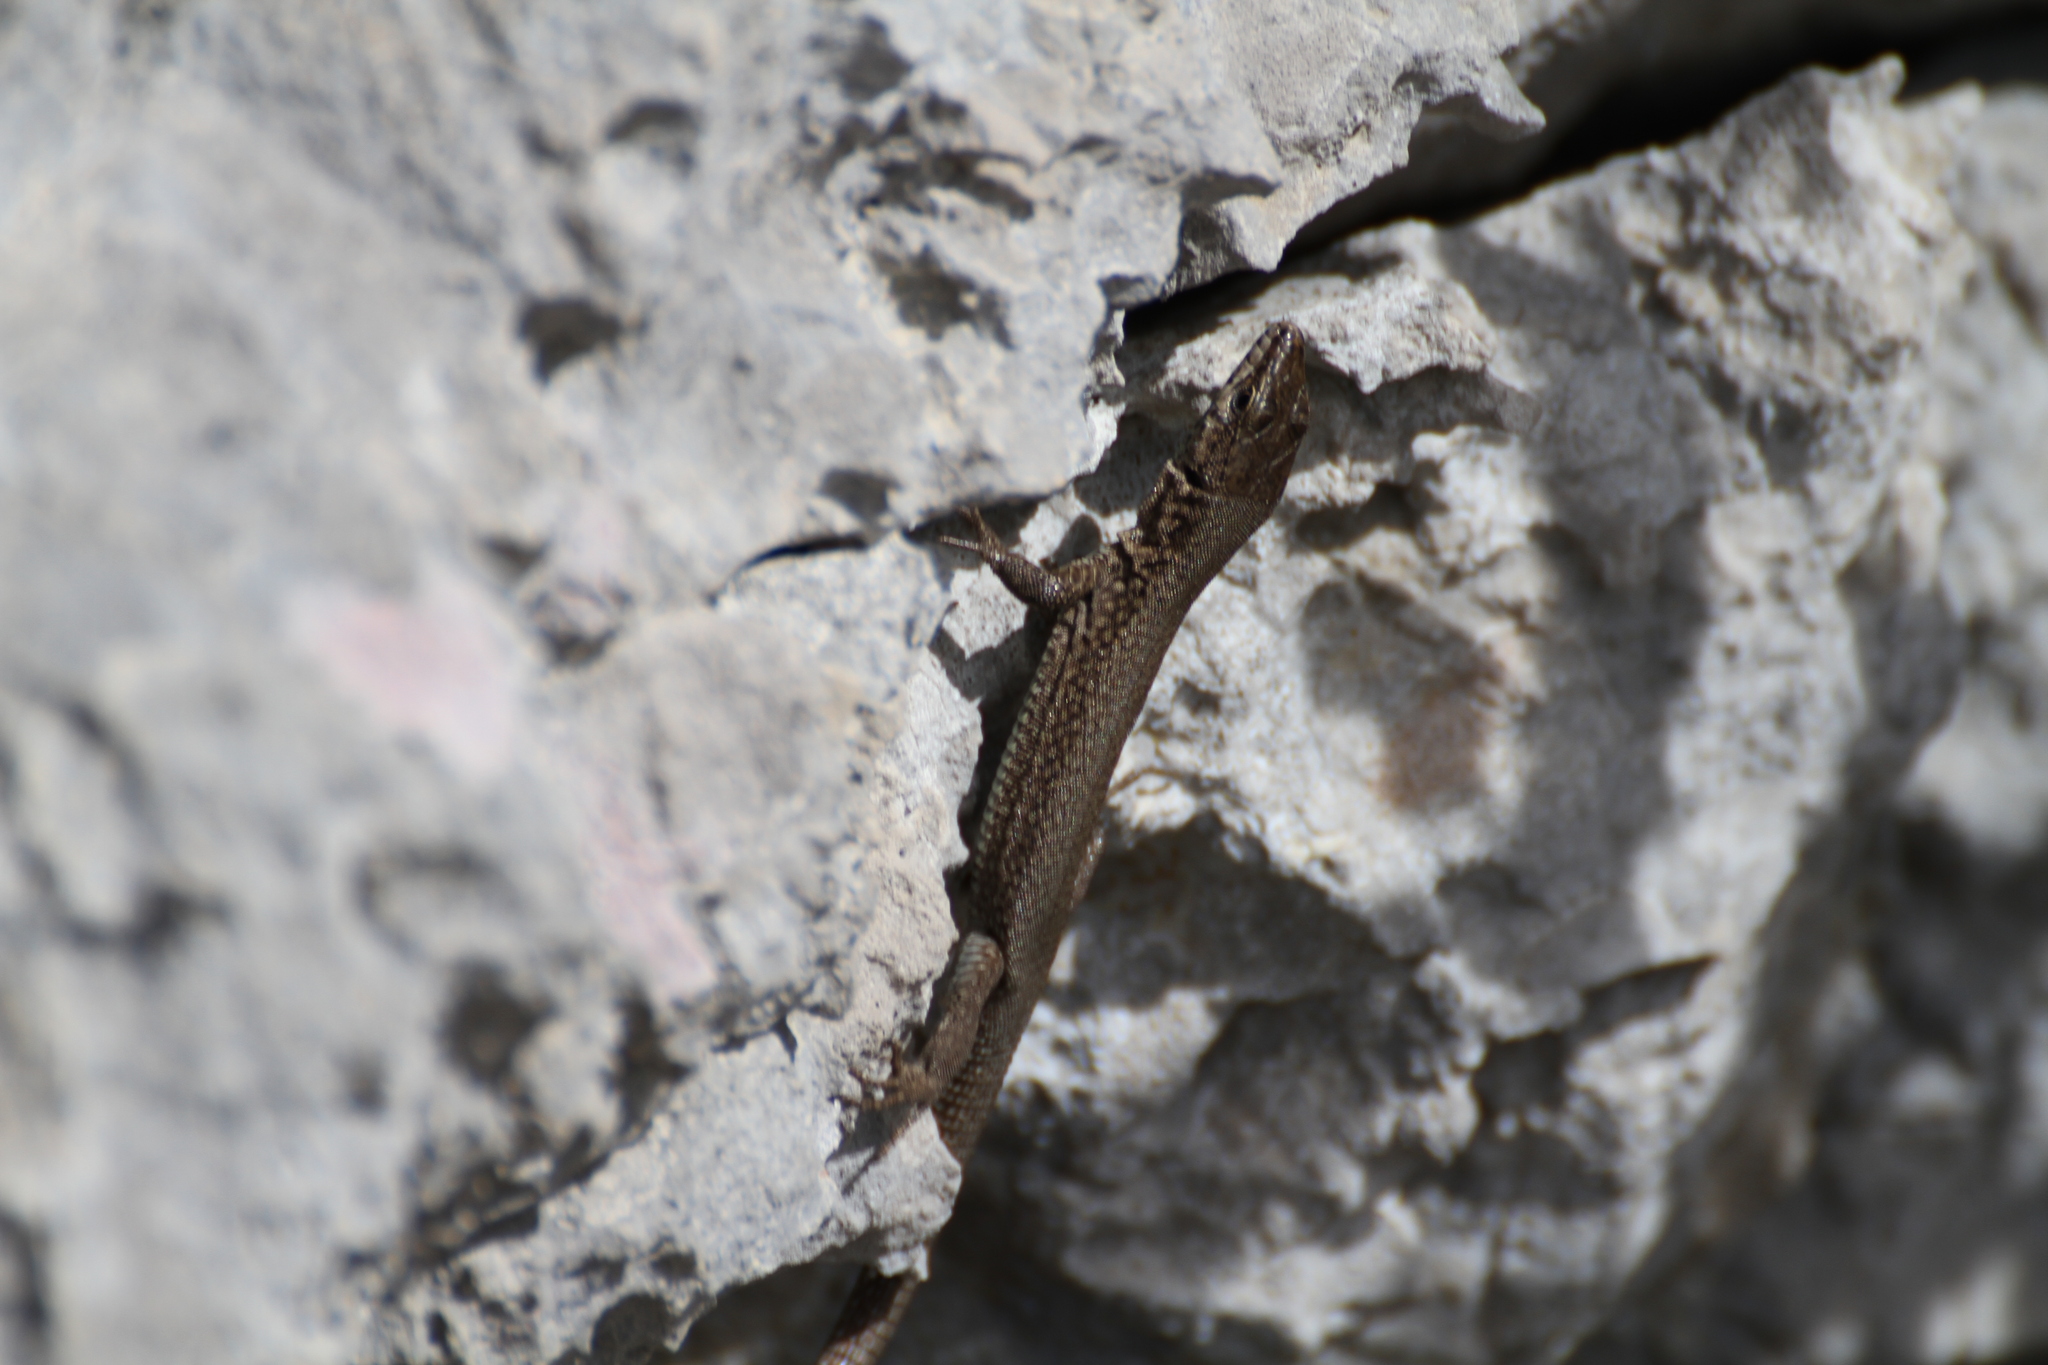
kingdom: Animalia
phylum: Chordata
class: Squamata
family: Lacertidae
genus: Podarcis
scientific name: Podarcis liolepis
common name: Catalonian wall lizard
